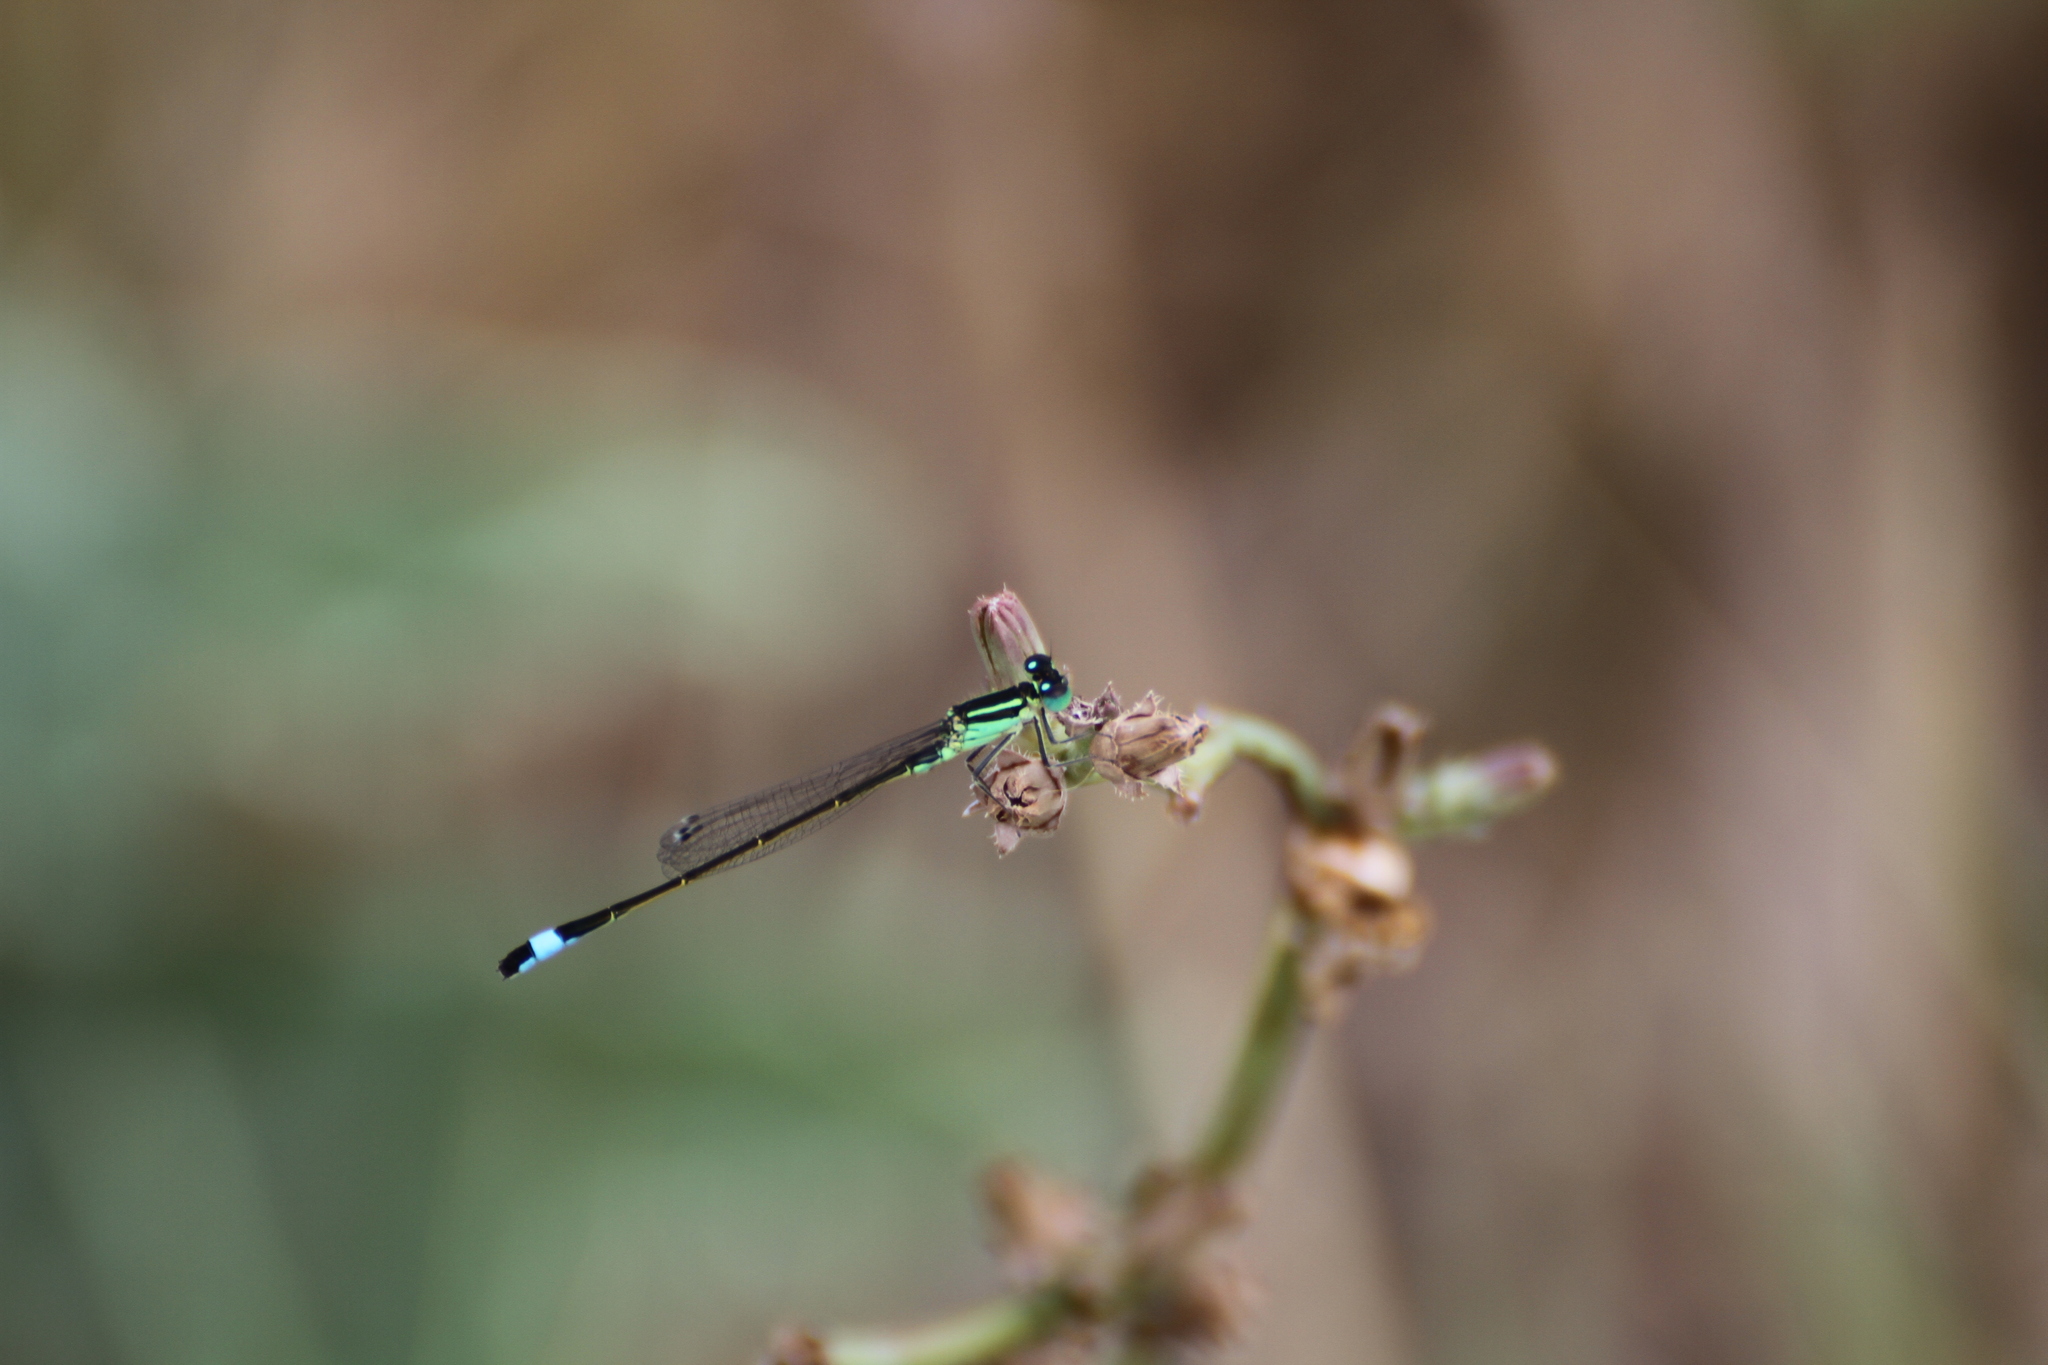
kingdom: Animalia
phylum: Arthropoda
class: Insecta
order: Odonata
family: Coenagrionidae
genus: Ischnura
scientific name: Ischnura elegans
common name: Blue-tailed damselfly
